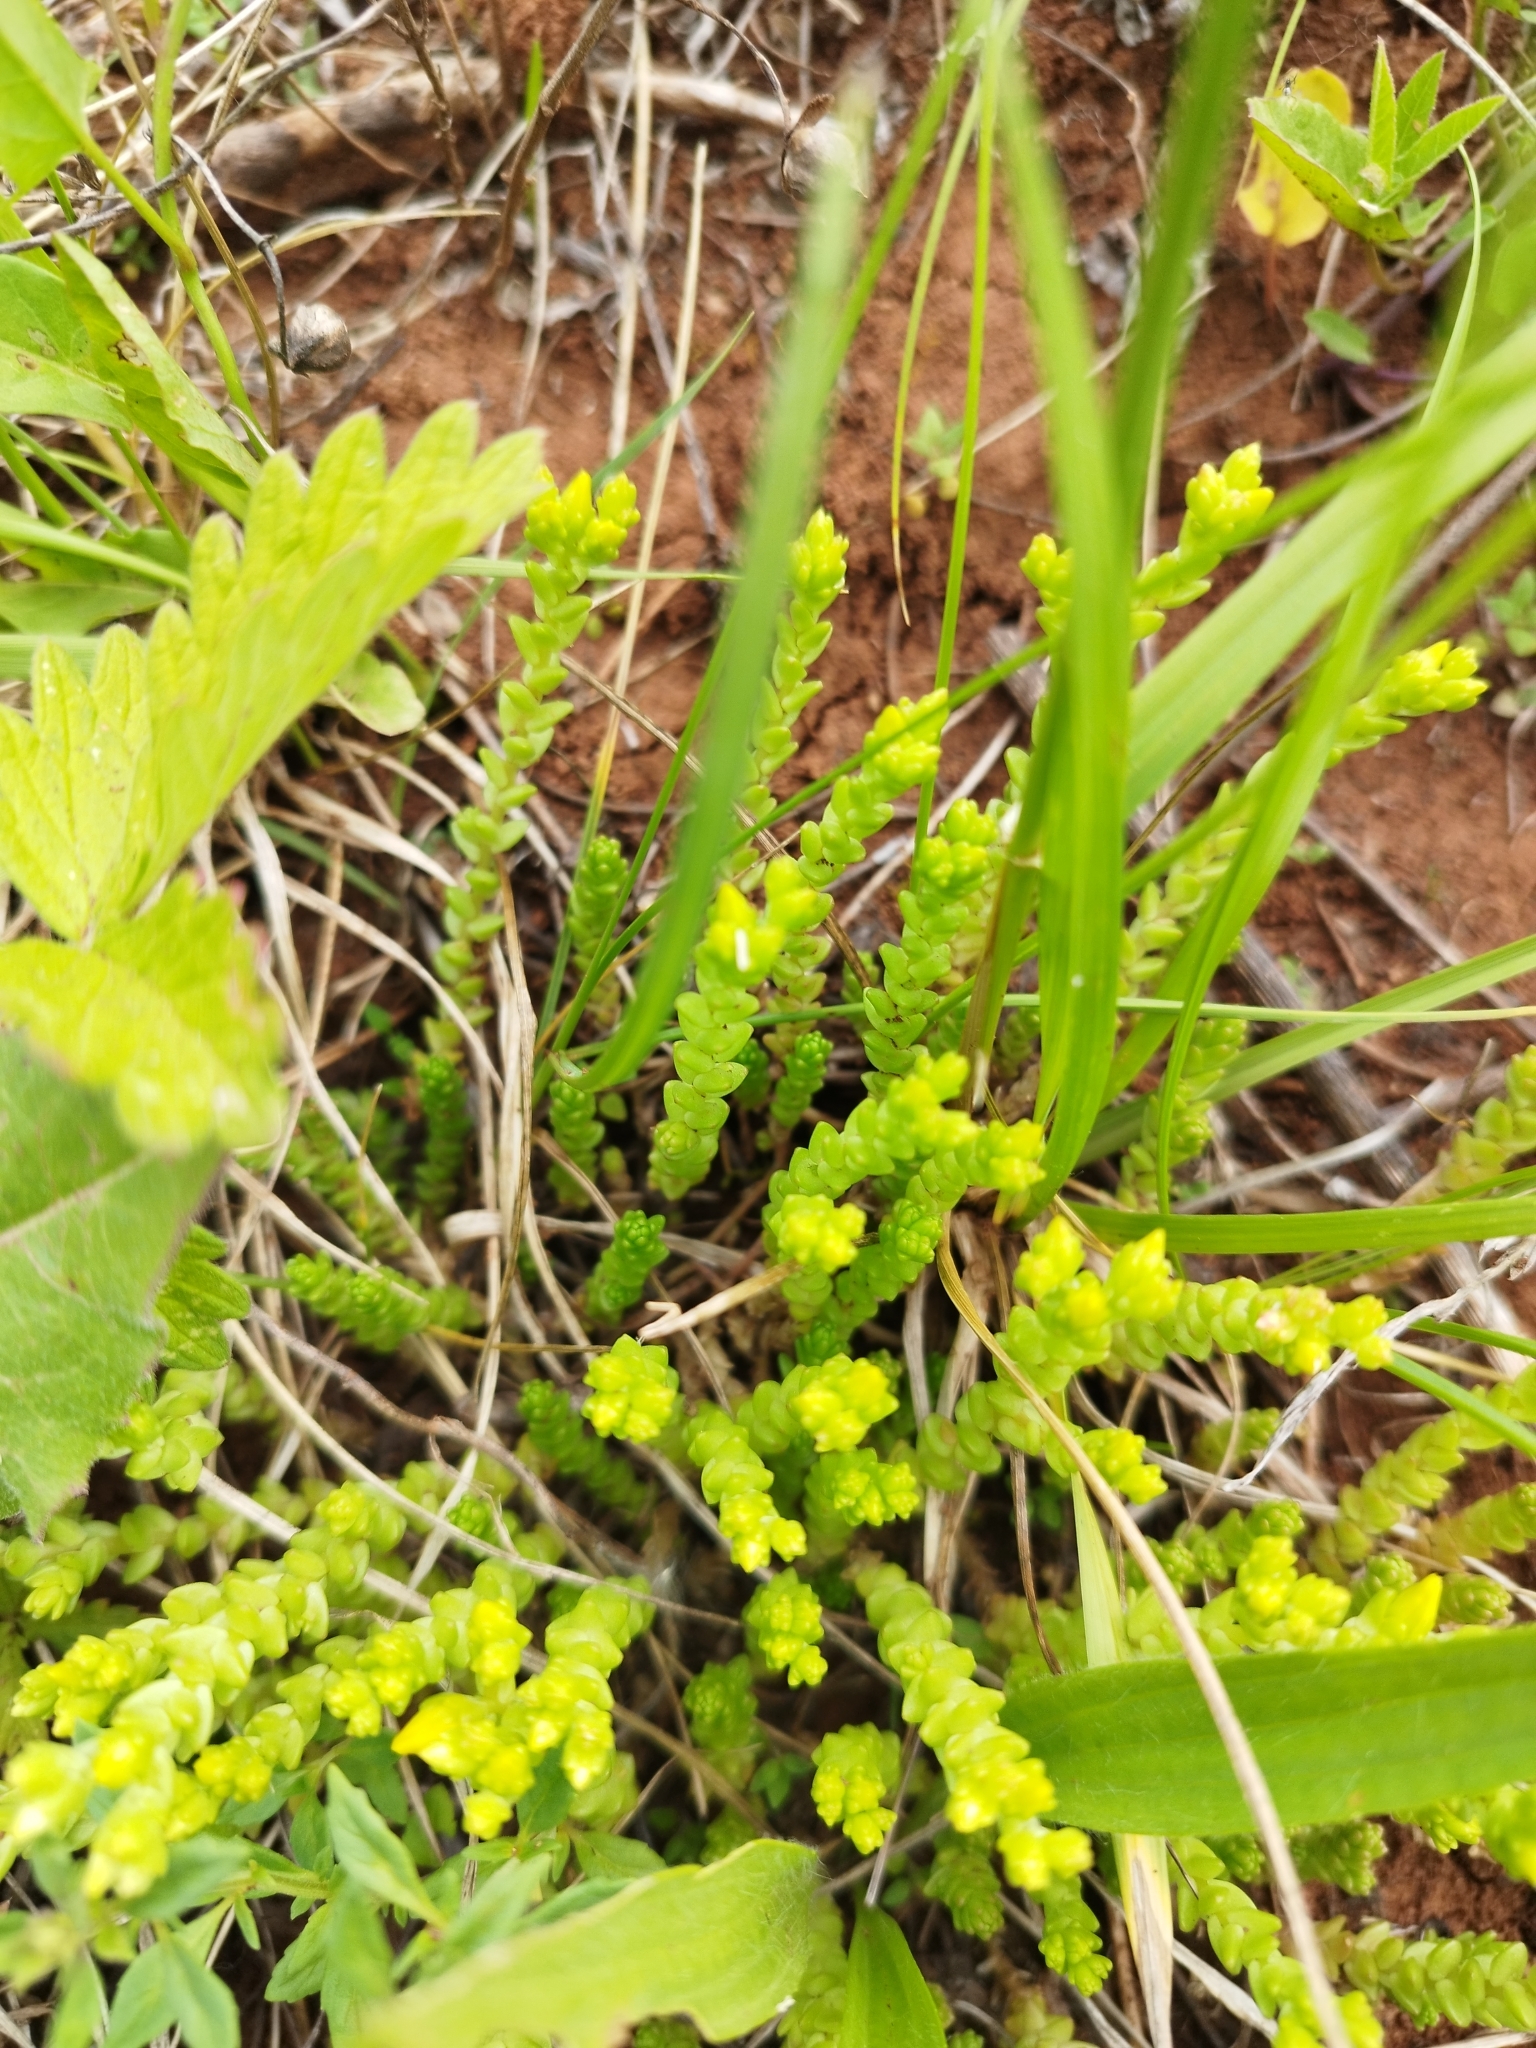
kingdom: Plantae
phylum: Tracheophyta
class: Magnoliopsida
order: Saxifragales
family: Crassulaceae
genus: Sedum
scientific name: Sedum acre
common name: Biting stonecrop
